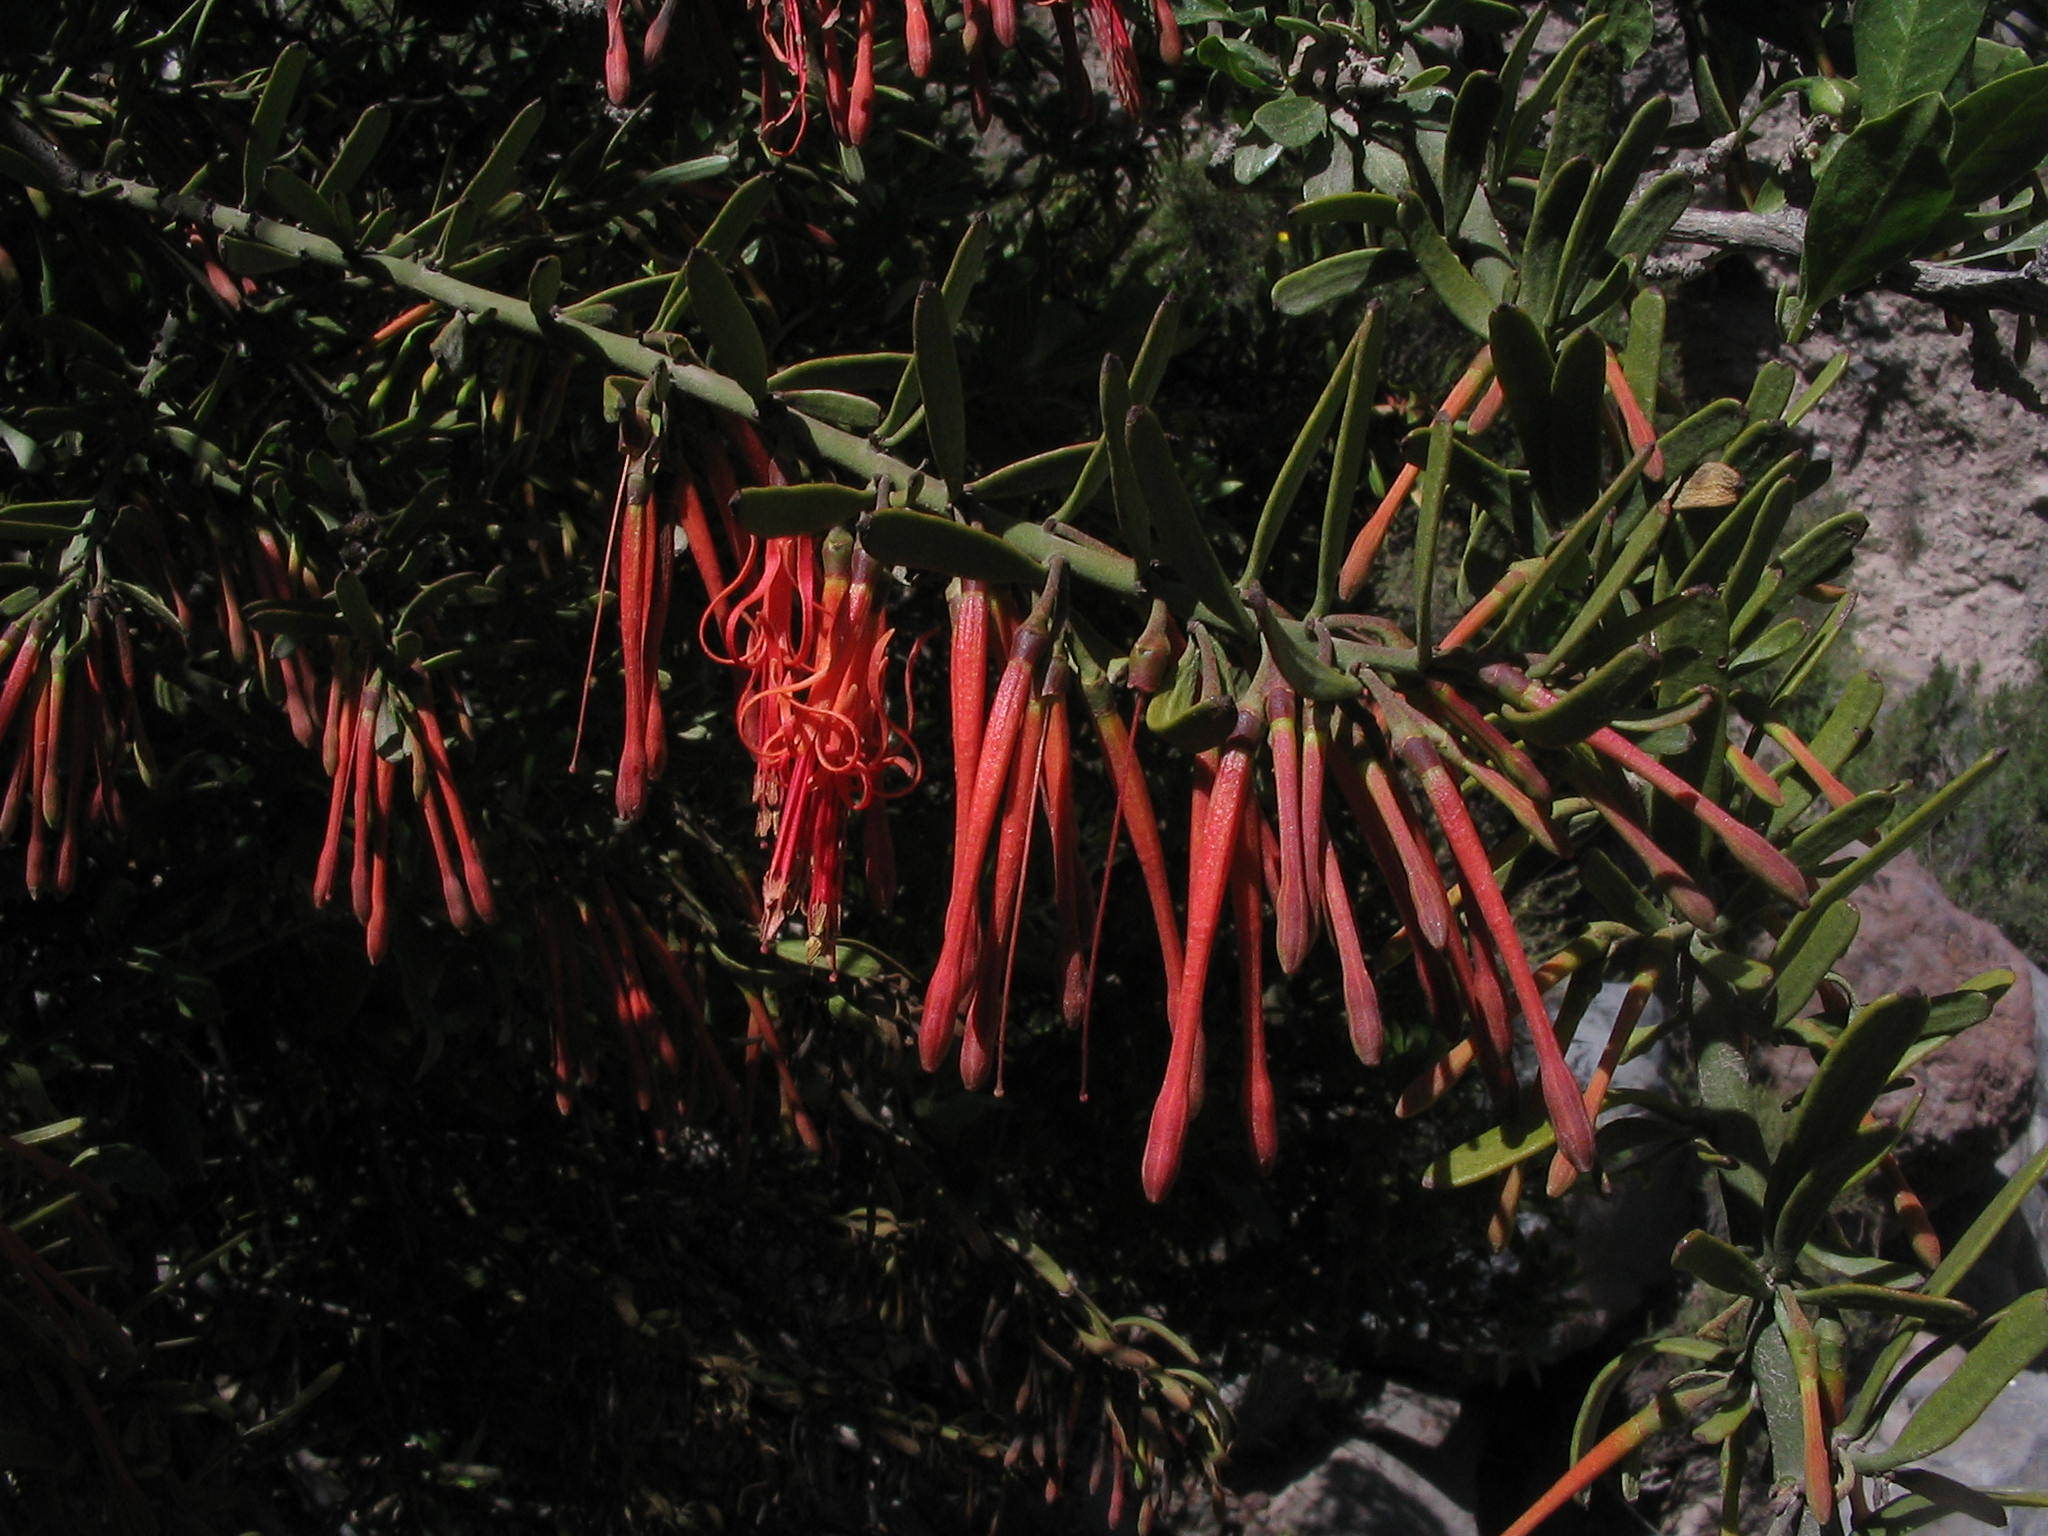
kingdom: Plantae
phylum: Tracheophyta
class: Magnoliopsida
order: Santalales
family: Loranthaceae
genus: Ligaria
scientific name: Ligaria cuneifolia
